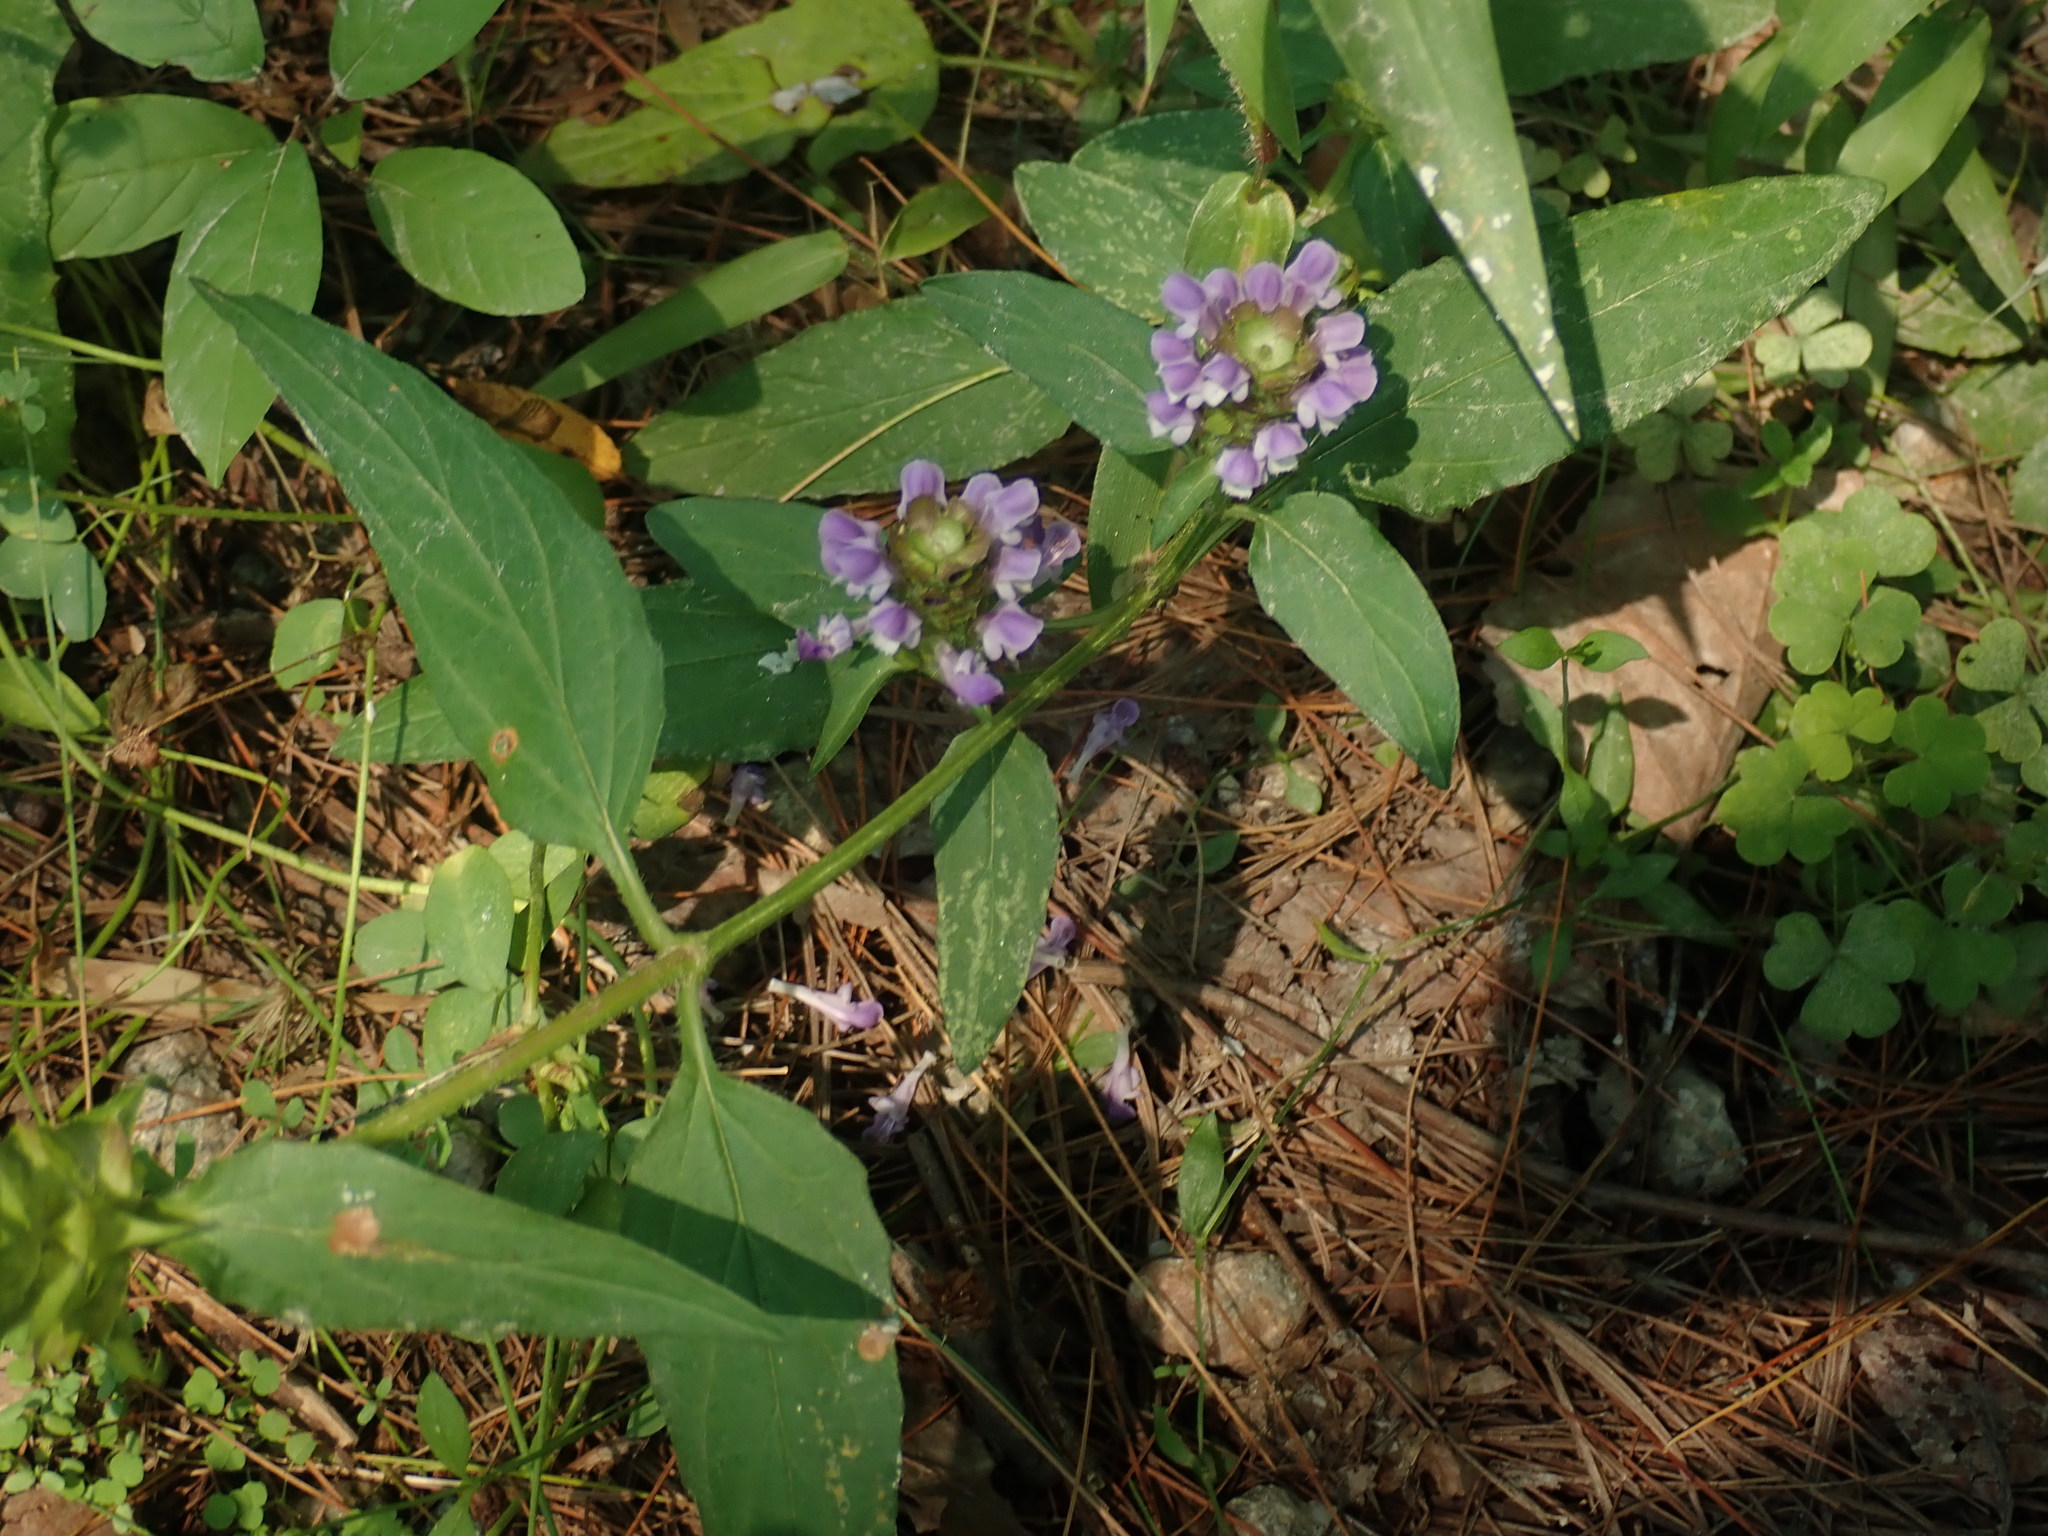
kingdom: Plantae
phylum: Tracheophyta
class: Magnoliopsida
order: Lamiales
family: Lamiaceae
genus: Prunella
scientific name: Prunella vulgaris
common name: Heal-all
